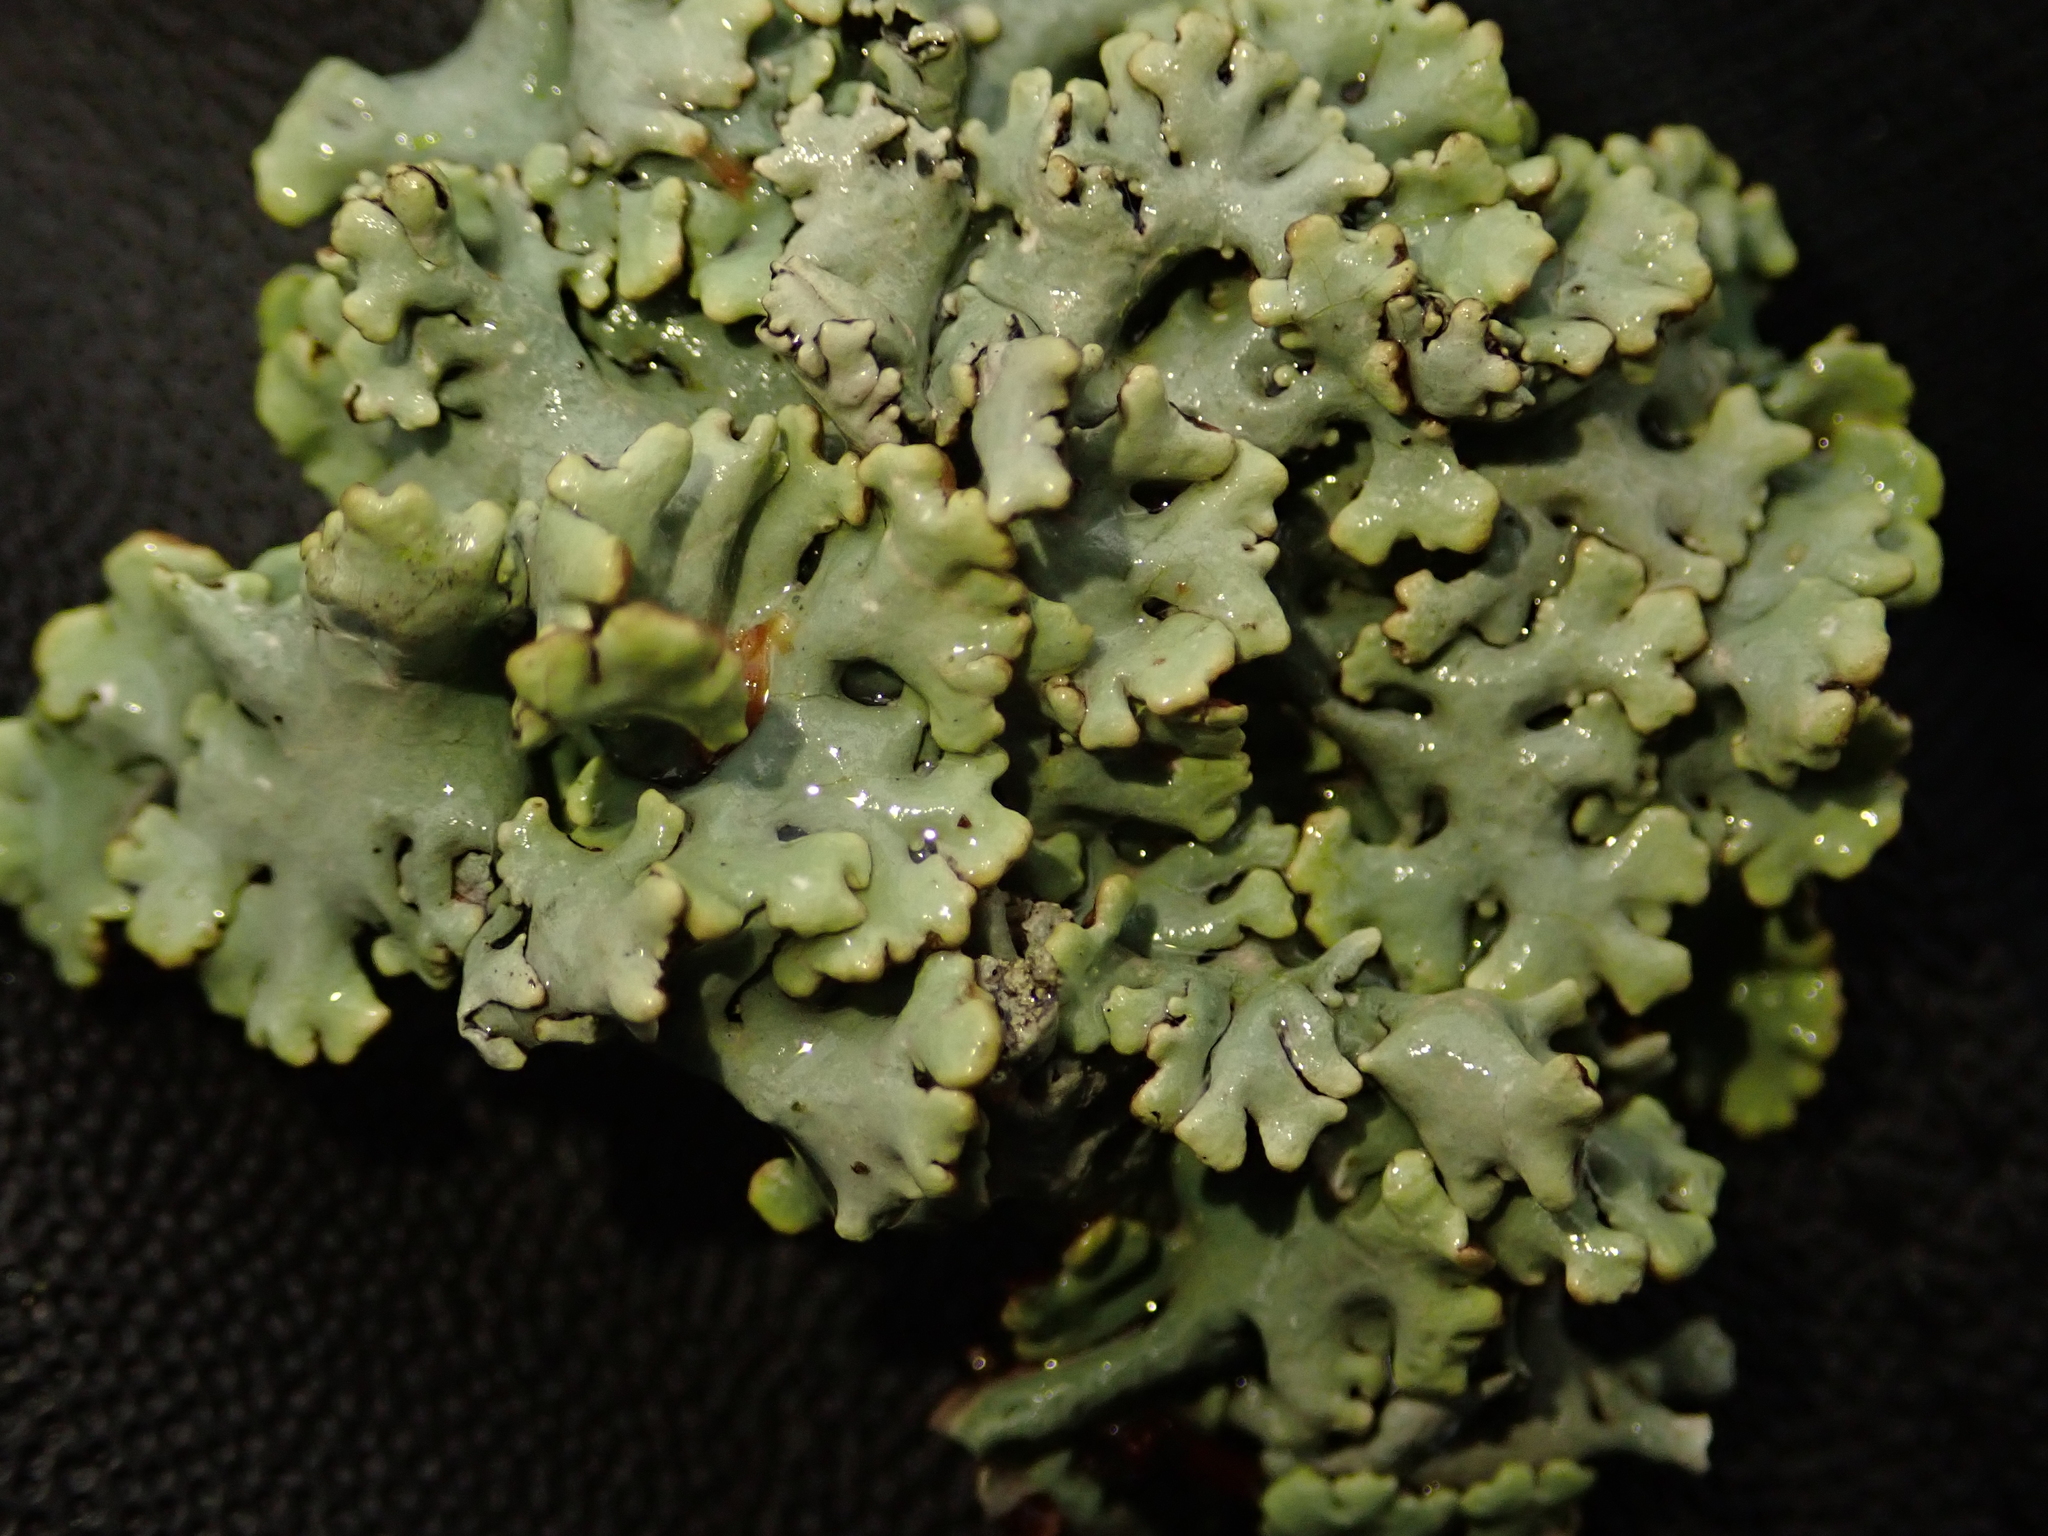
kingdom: Fungi
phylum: Ascomycota
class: Lecanoromycetes
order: Lecanorales
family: Parmeliaceae
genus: Hypogymnia
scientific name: Hypogymnia physodes
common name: Dark crottle
